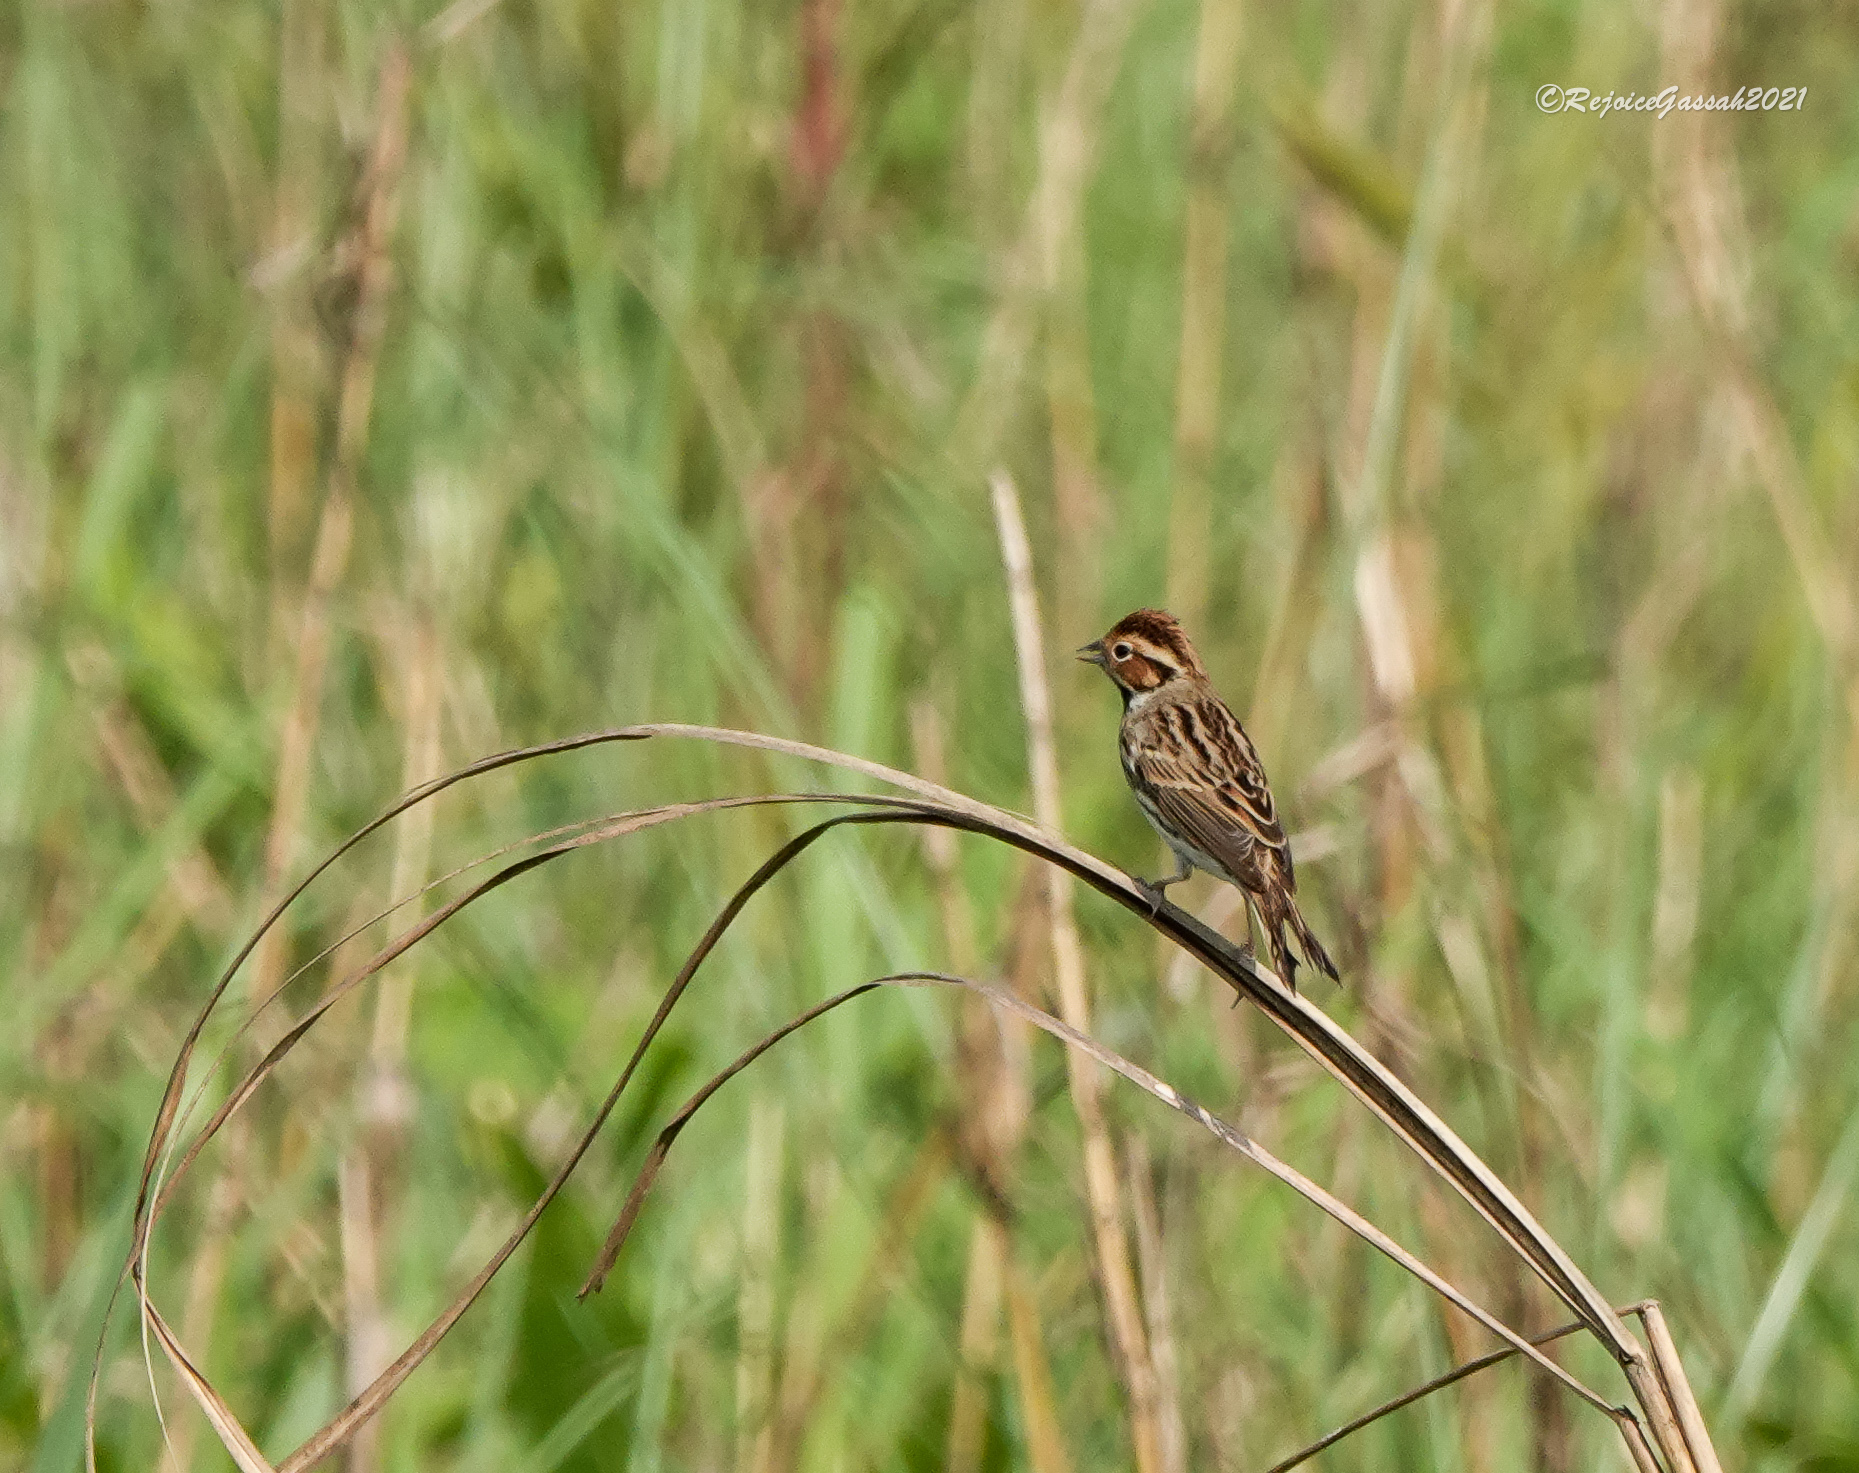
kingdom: Animalia
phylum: Chordata
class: Aves
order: Passeriformes
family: Emberizidae
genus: Emberiza
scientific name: Emberiza pusilla
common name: Little bunting
